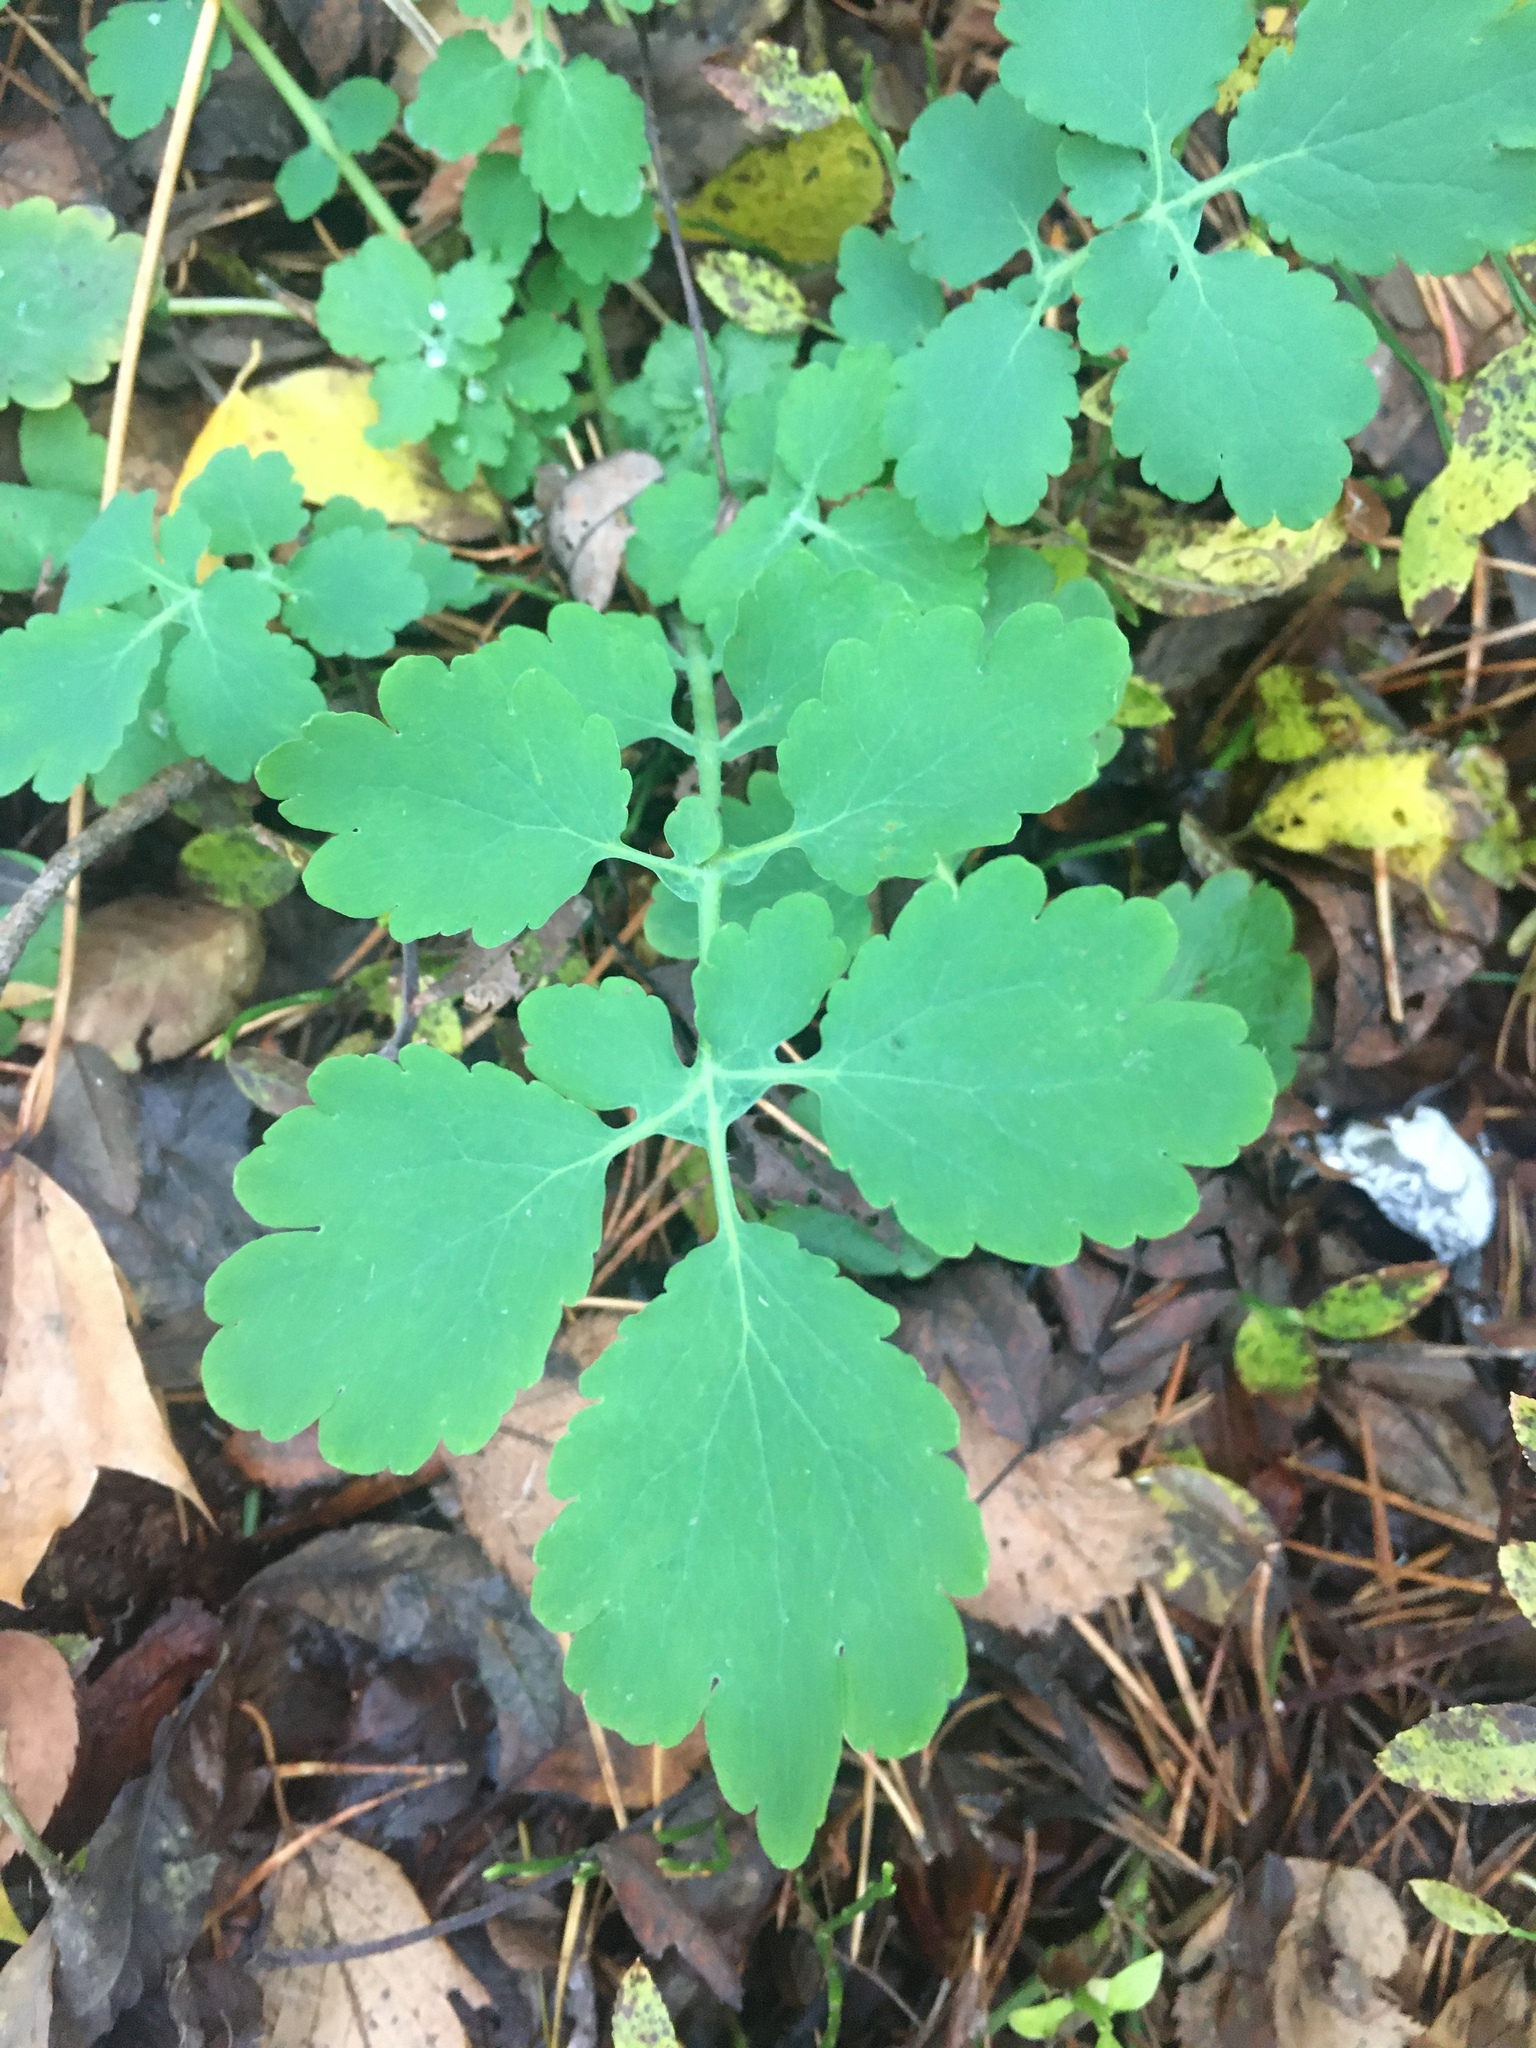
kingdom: Plantae
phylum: Tracheophyta
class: Magnoliopsida
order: Ranunculales
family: Papaveraceae
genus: Chelidonium
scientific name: Chelidonium majus
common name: Greater celandine
